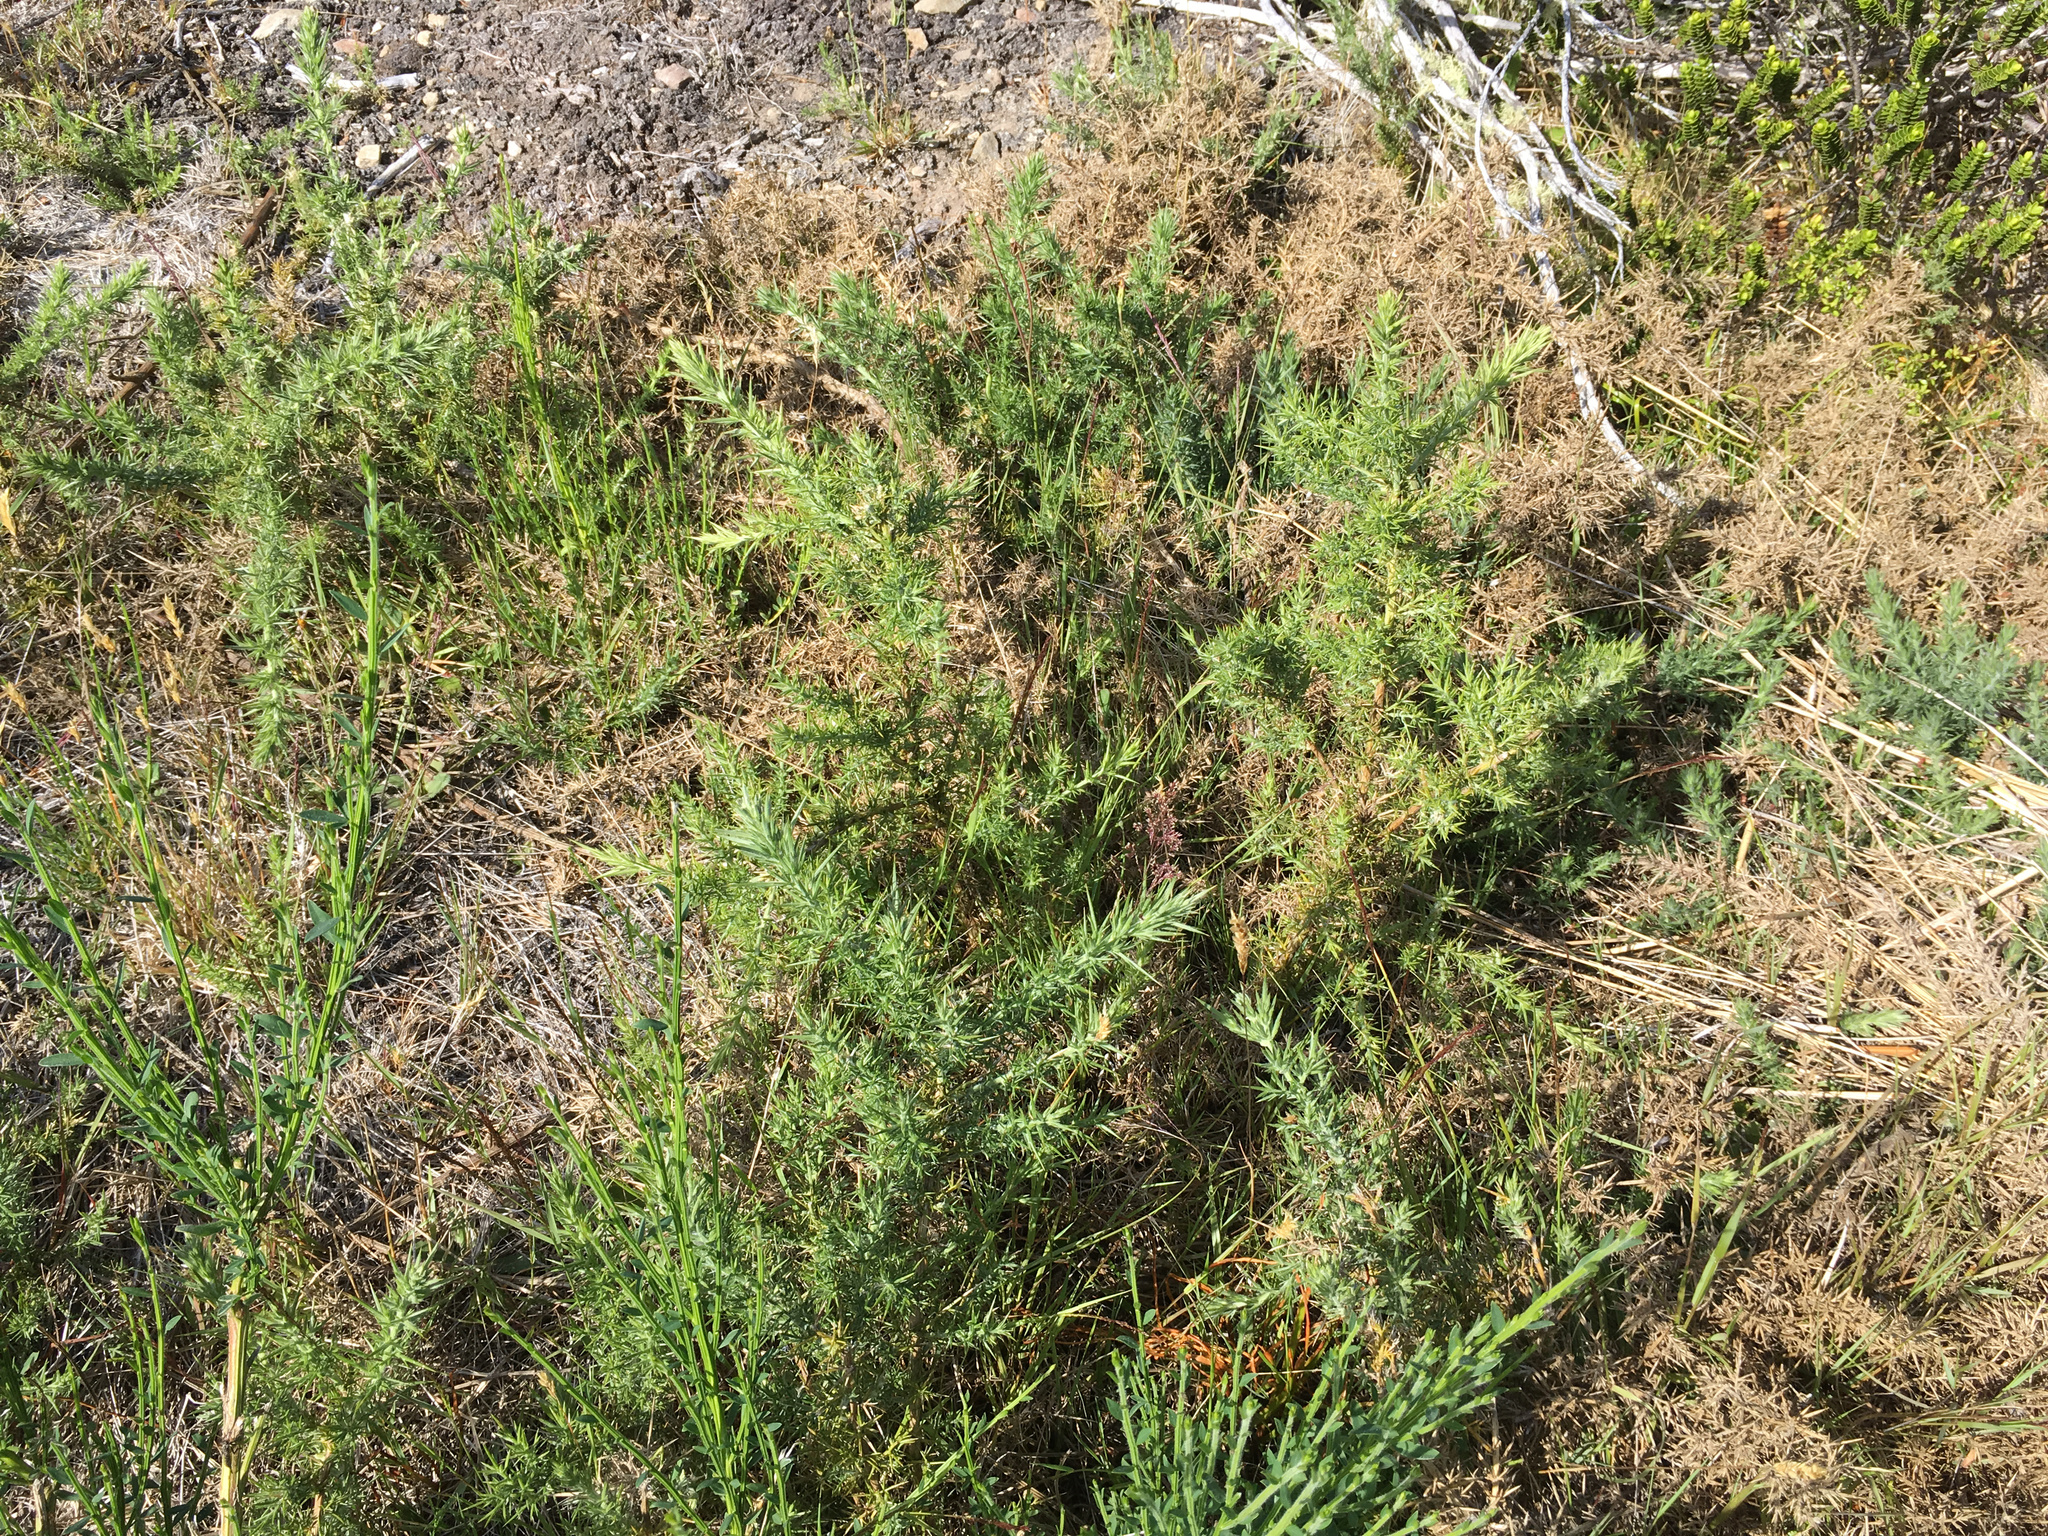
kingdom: Plantae
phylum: Tracheophyta
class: Magnoliopsida
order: Fabales
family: Fabaceae
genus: Cytisus
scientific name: Cytisus scoparius
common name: Scotch broom
